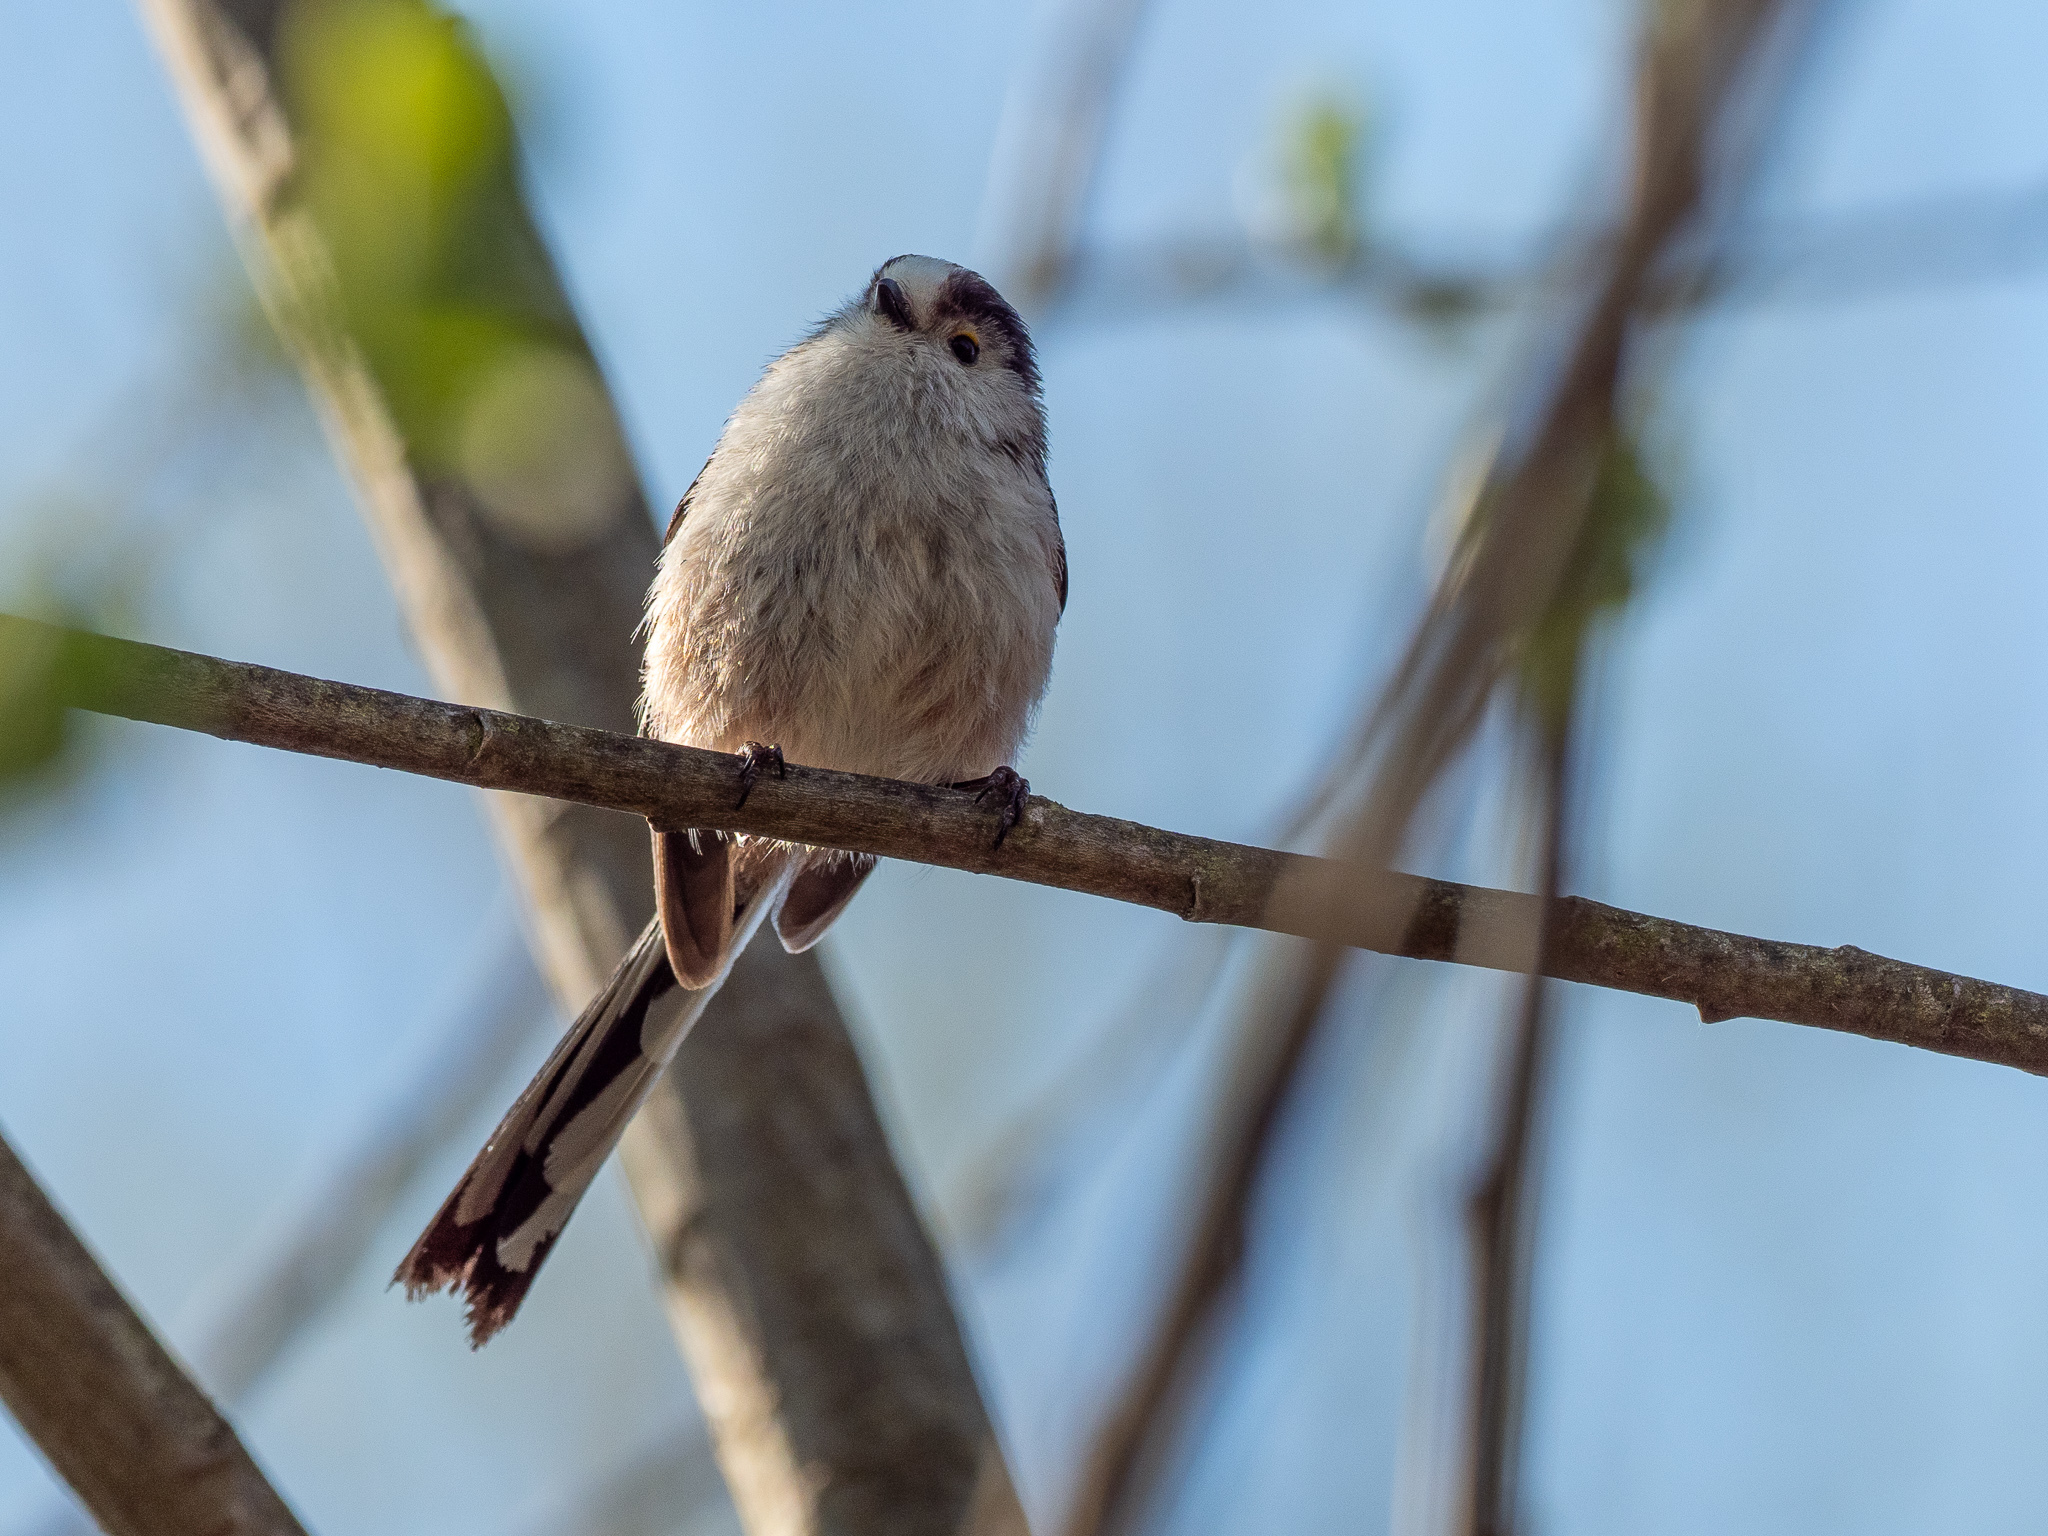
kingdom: Animalia
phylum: Chordata
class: Aves
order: Passeriformes
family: Aegithalidae
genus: Aegithalos
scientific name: Aegithalos caudatus
